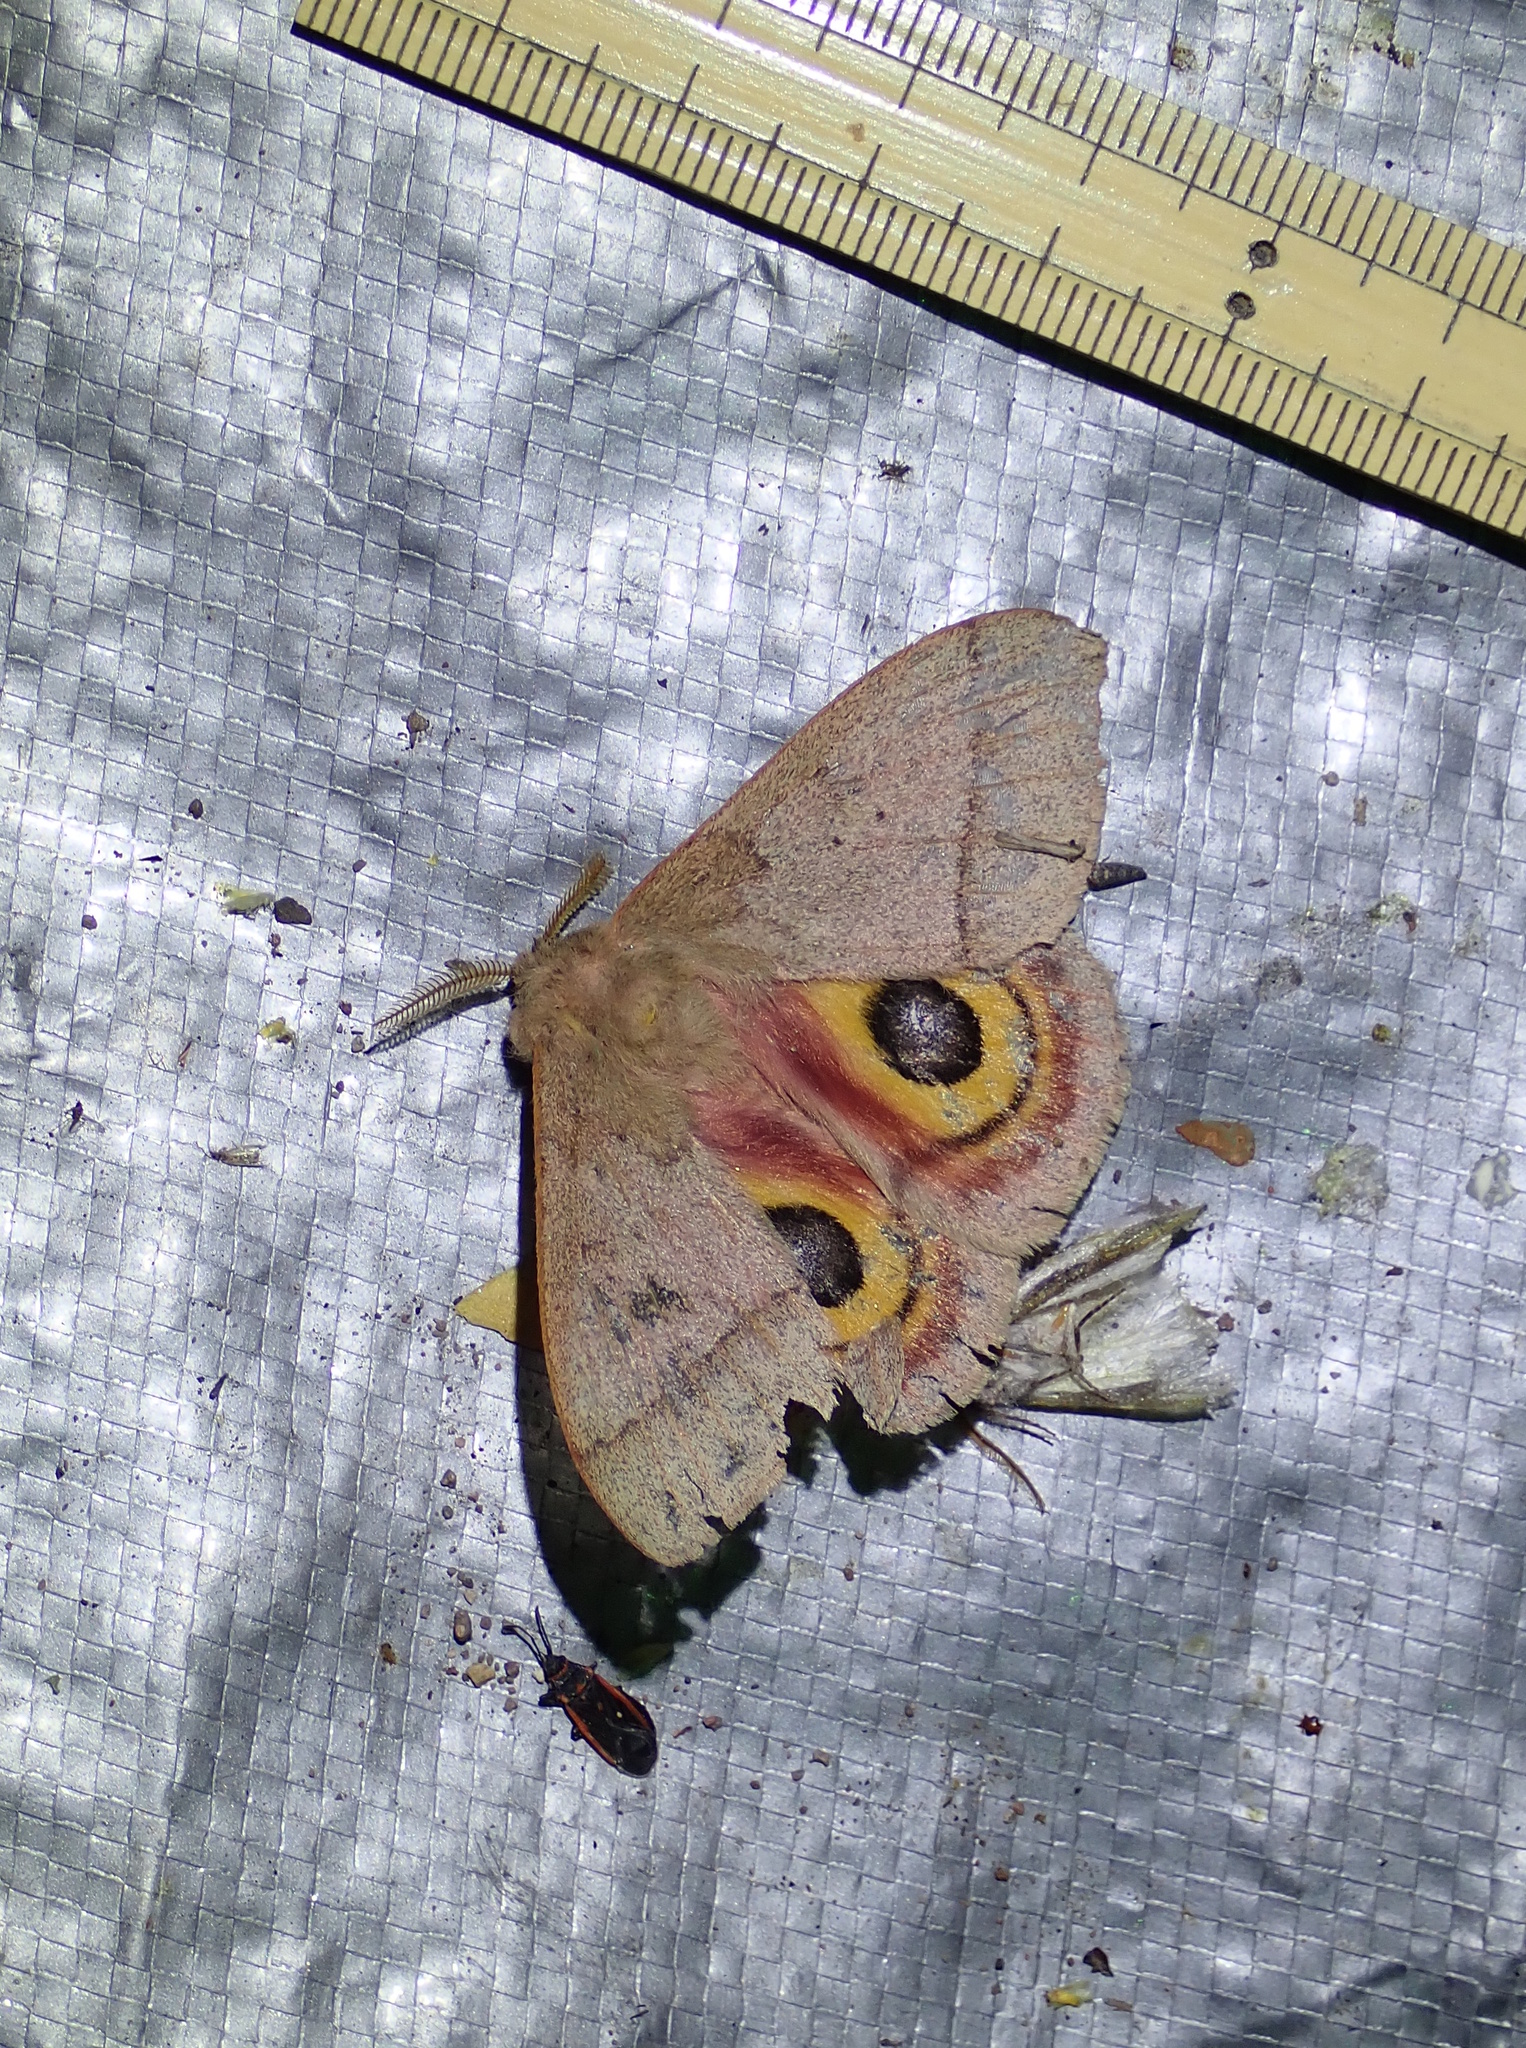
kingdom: Animalia
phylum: Arthropoda
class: Insecta
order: Lepidoptera
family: Saturniidae
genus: Automeris
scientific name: Automeris iris
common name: Iris eyed silkmoth
